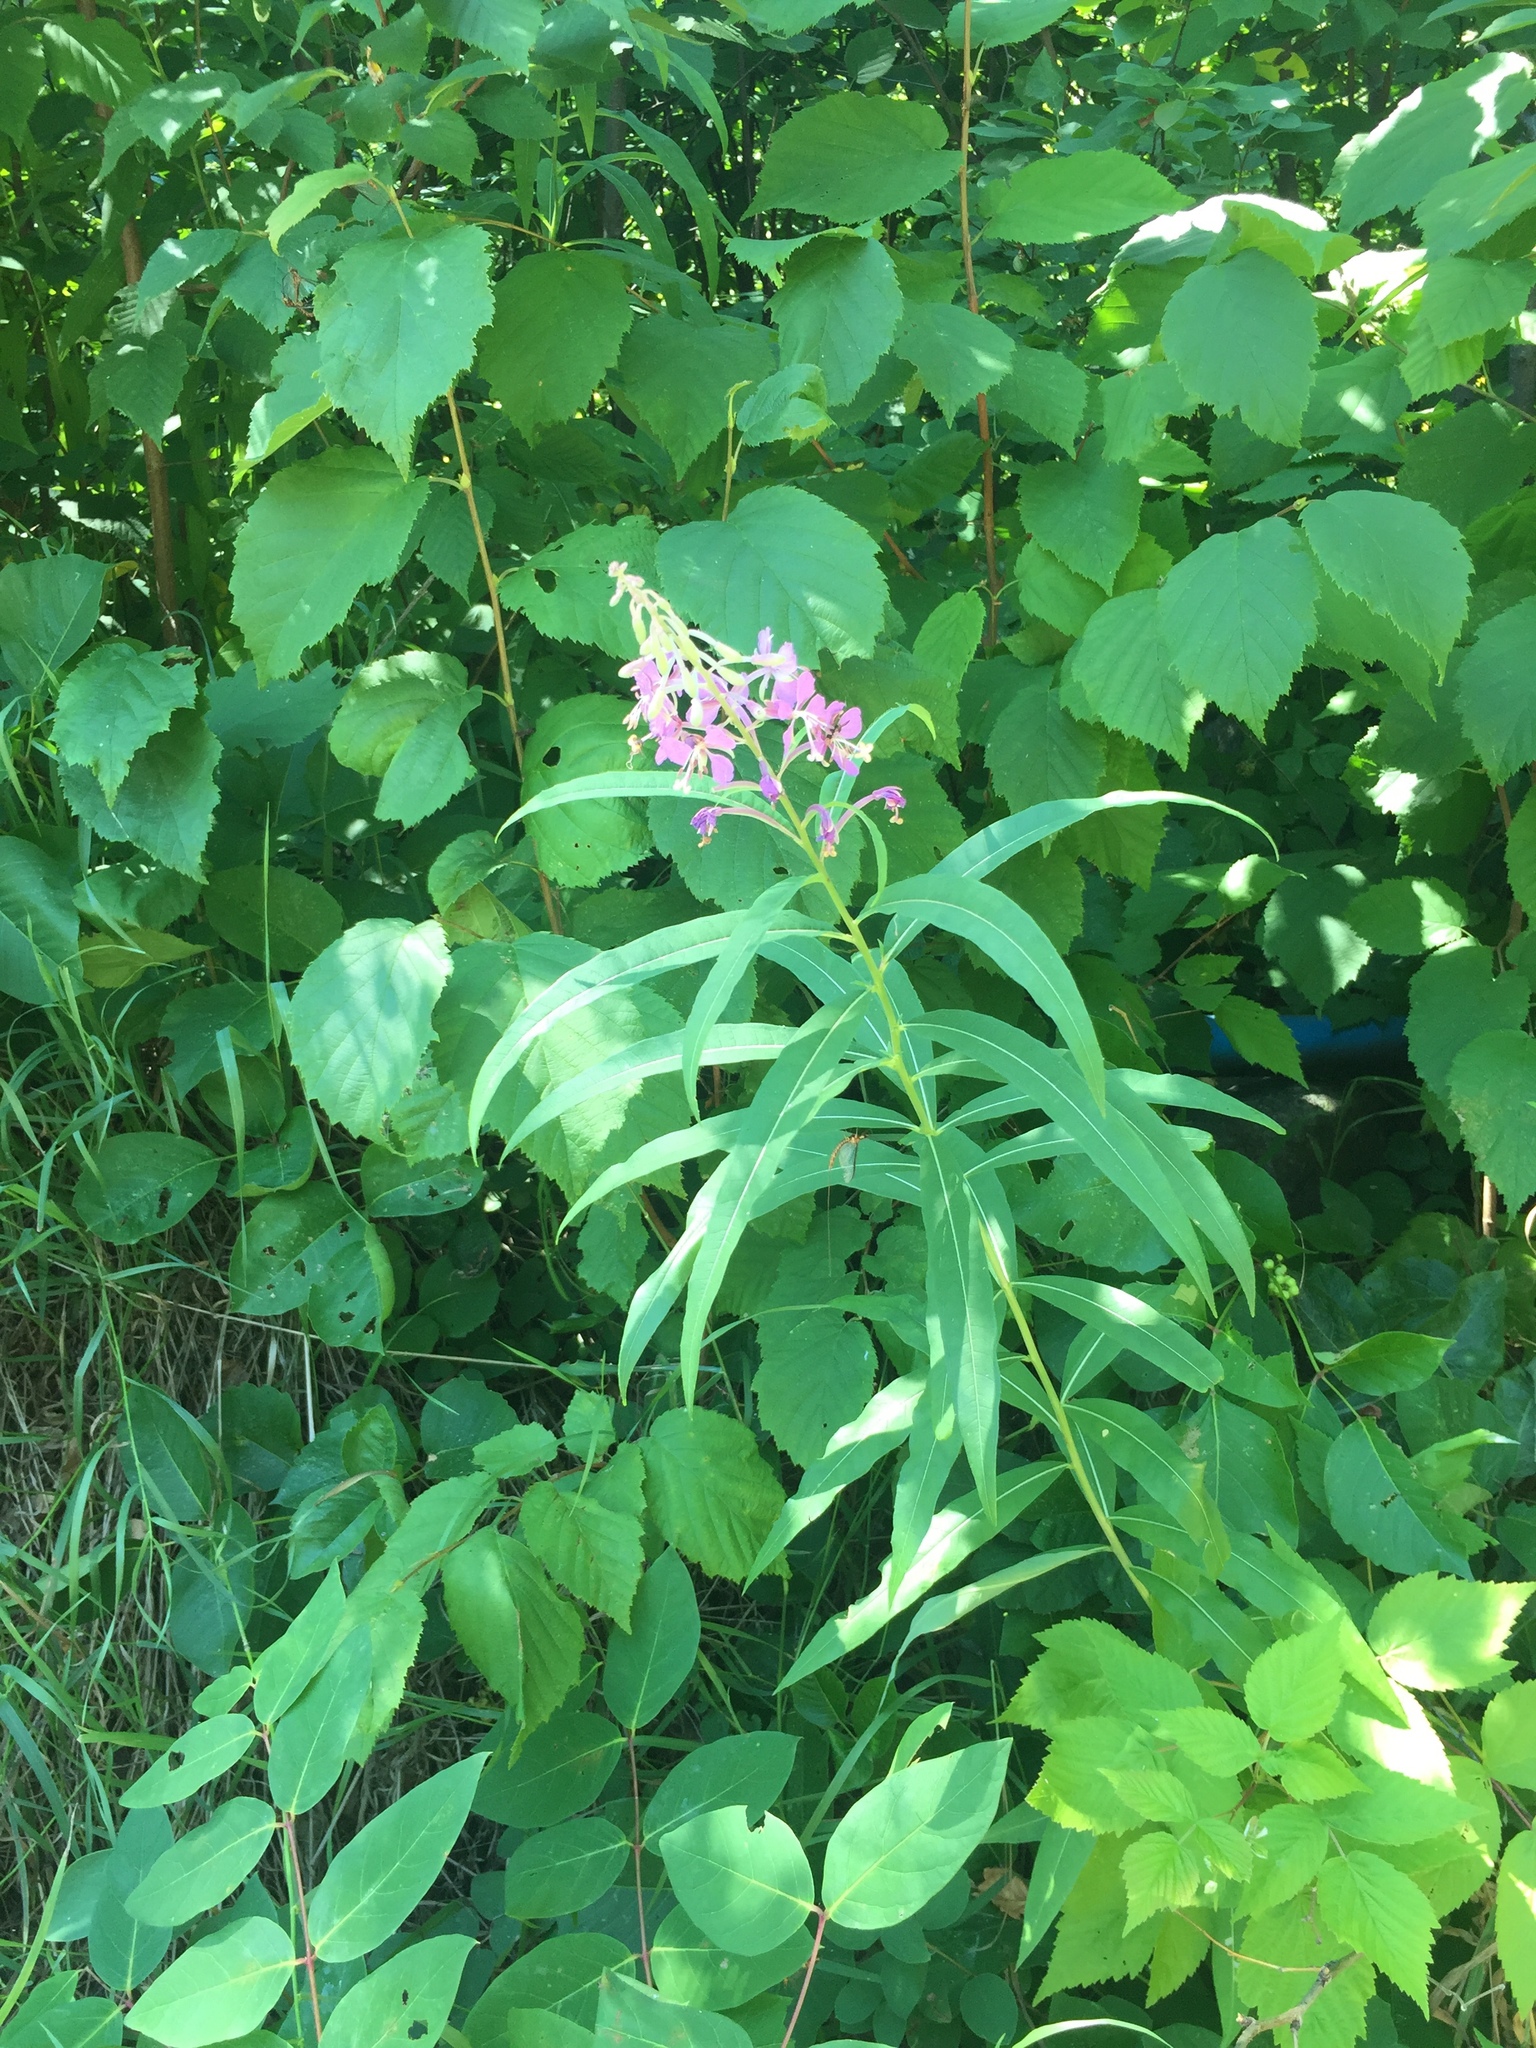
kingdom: Plantae
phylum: Tracheophyta
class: Magnoliopsida
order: Myrtales
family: Onagraceae
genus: Chamaenerion
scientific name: Chamaenerion angustifolium
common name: Fireweed
